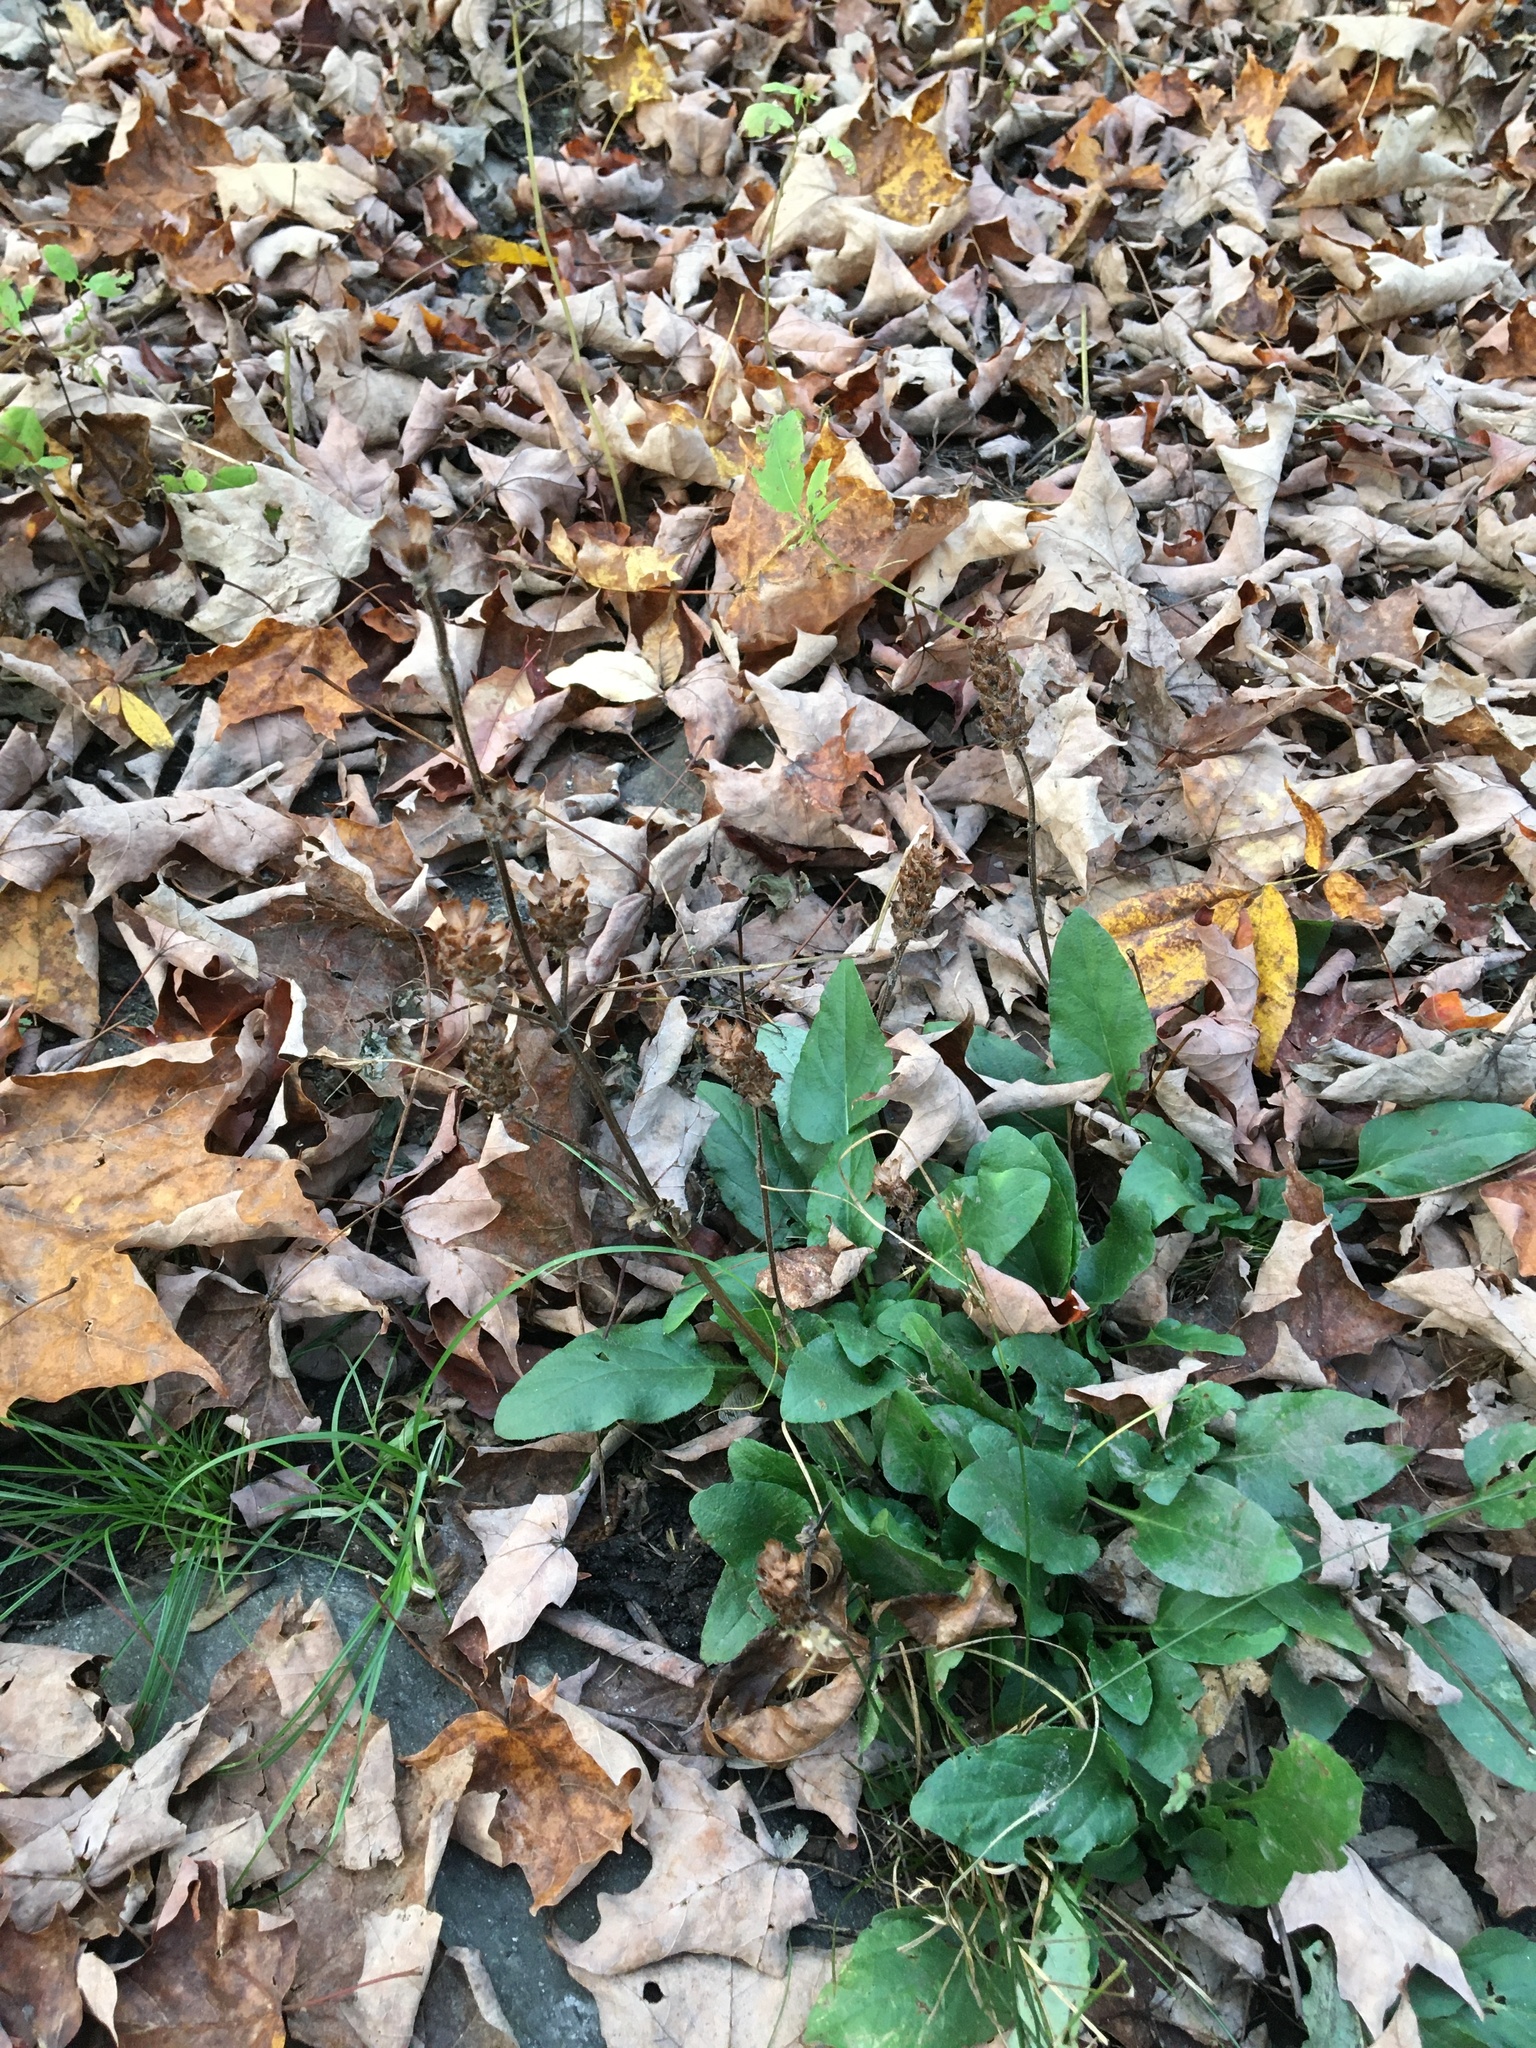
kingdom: Plantae
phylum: Tracheophyta
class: Magnoliopsida
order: Lamiales
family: Lamiaceae
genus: Prunella
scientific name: Prunella vulgaris
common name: Heal-all
